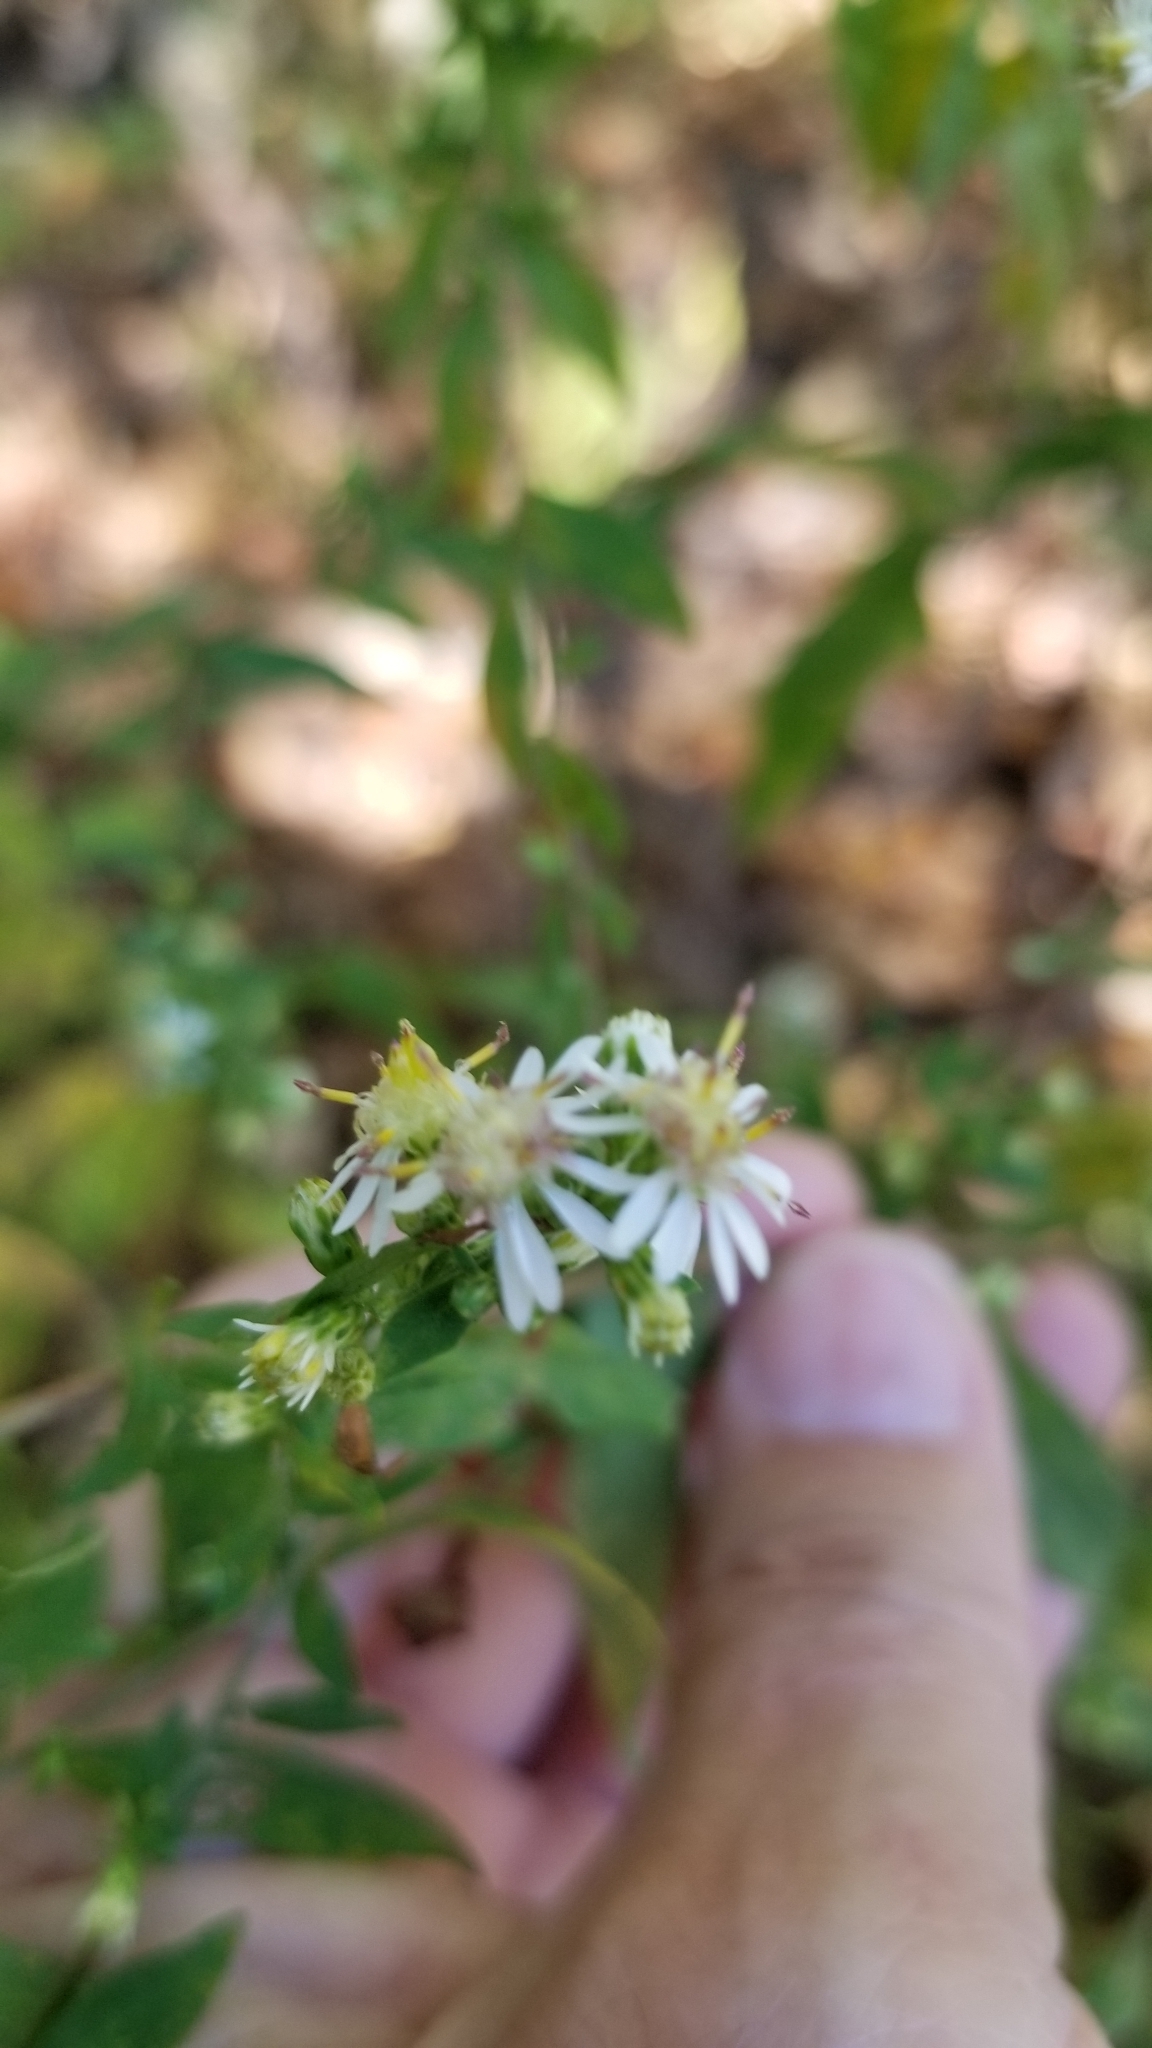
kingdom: Plantae
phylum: Tracheophyta
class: Magnoliopsida
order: Asterales
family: Asteraceae
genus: Symphyotrichum
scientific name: Symphyotrichum lateriflorum
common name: Calico aster
